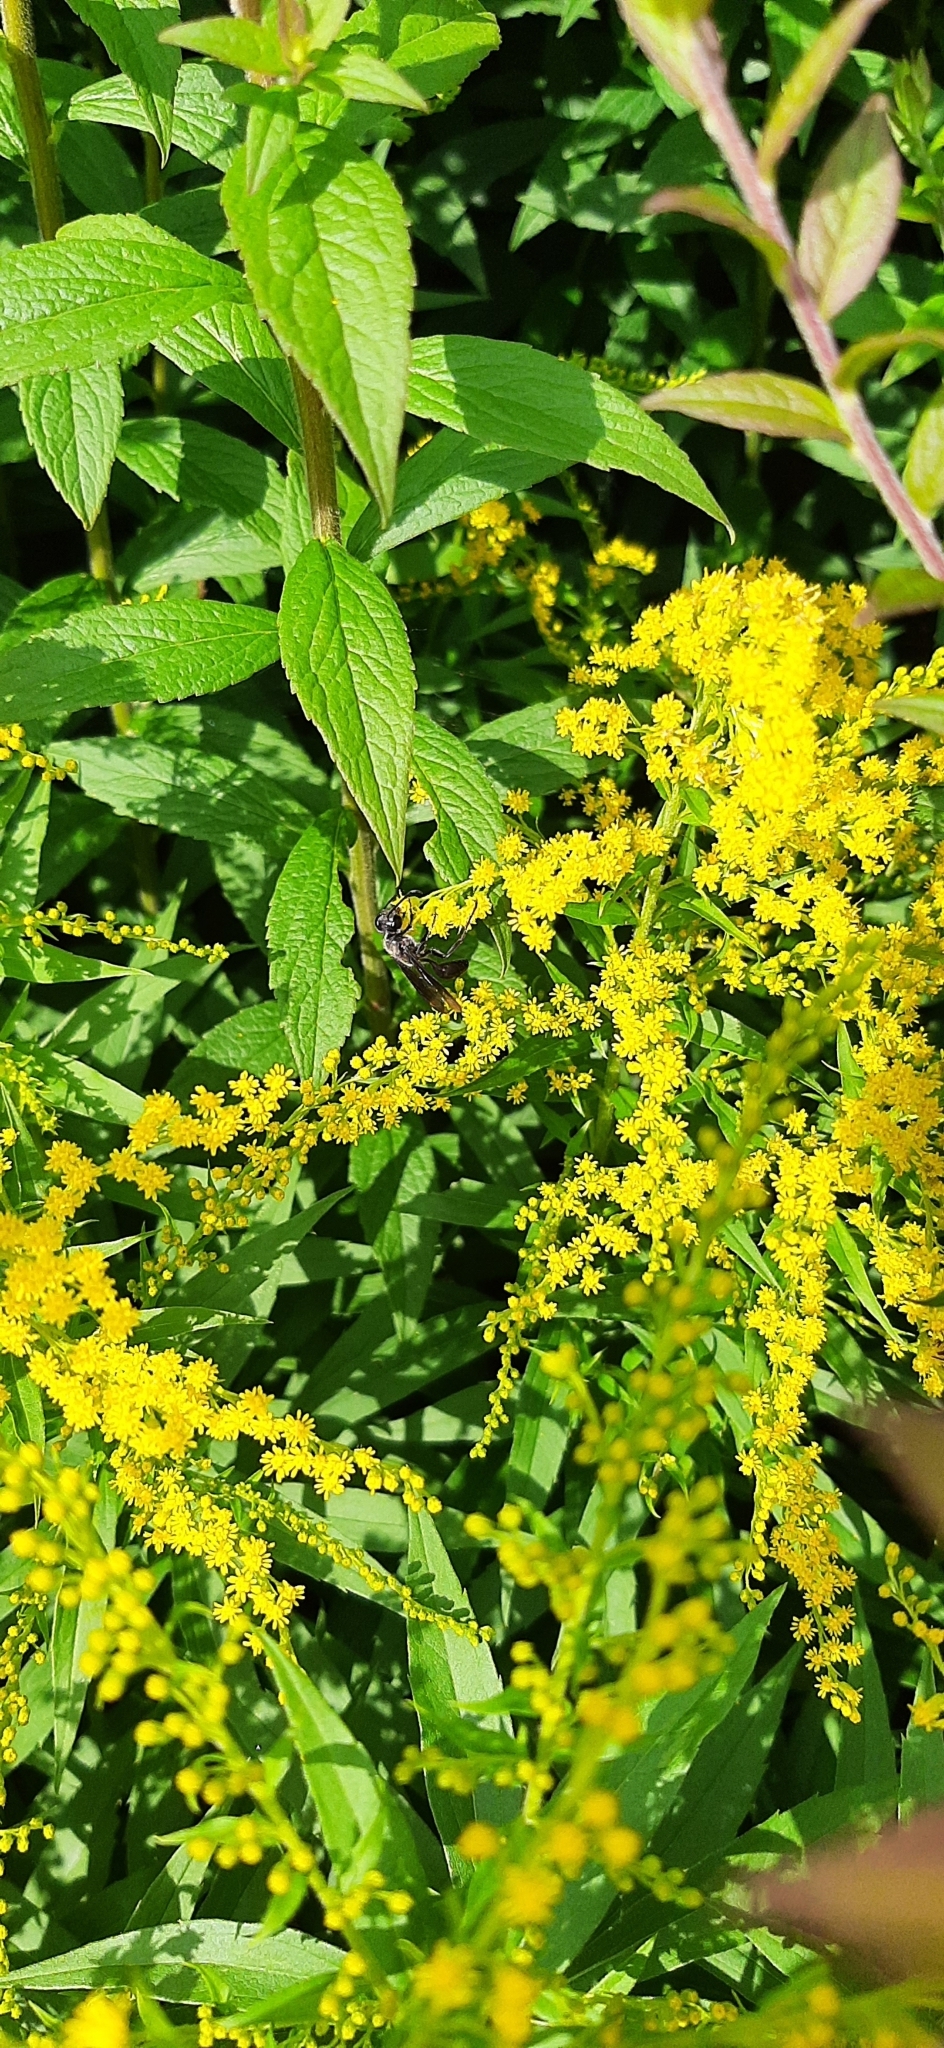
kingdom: Animalia
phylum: Arthropoda
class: Insecta
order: Hymenoptera
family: Sphecidae
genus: Isodontia
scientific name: Isodontia mexicana
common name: Mud dauber
